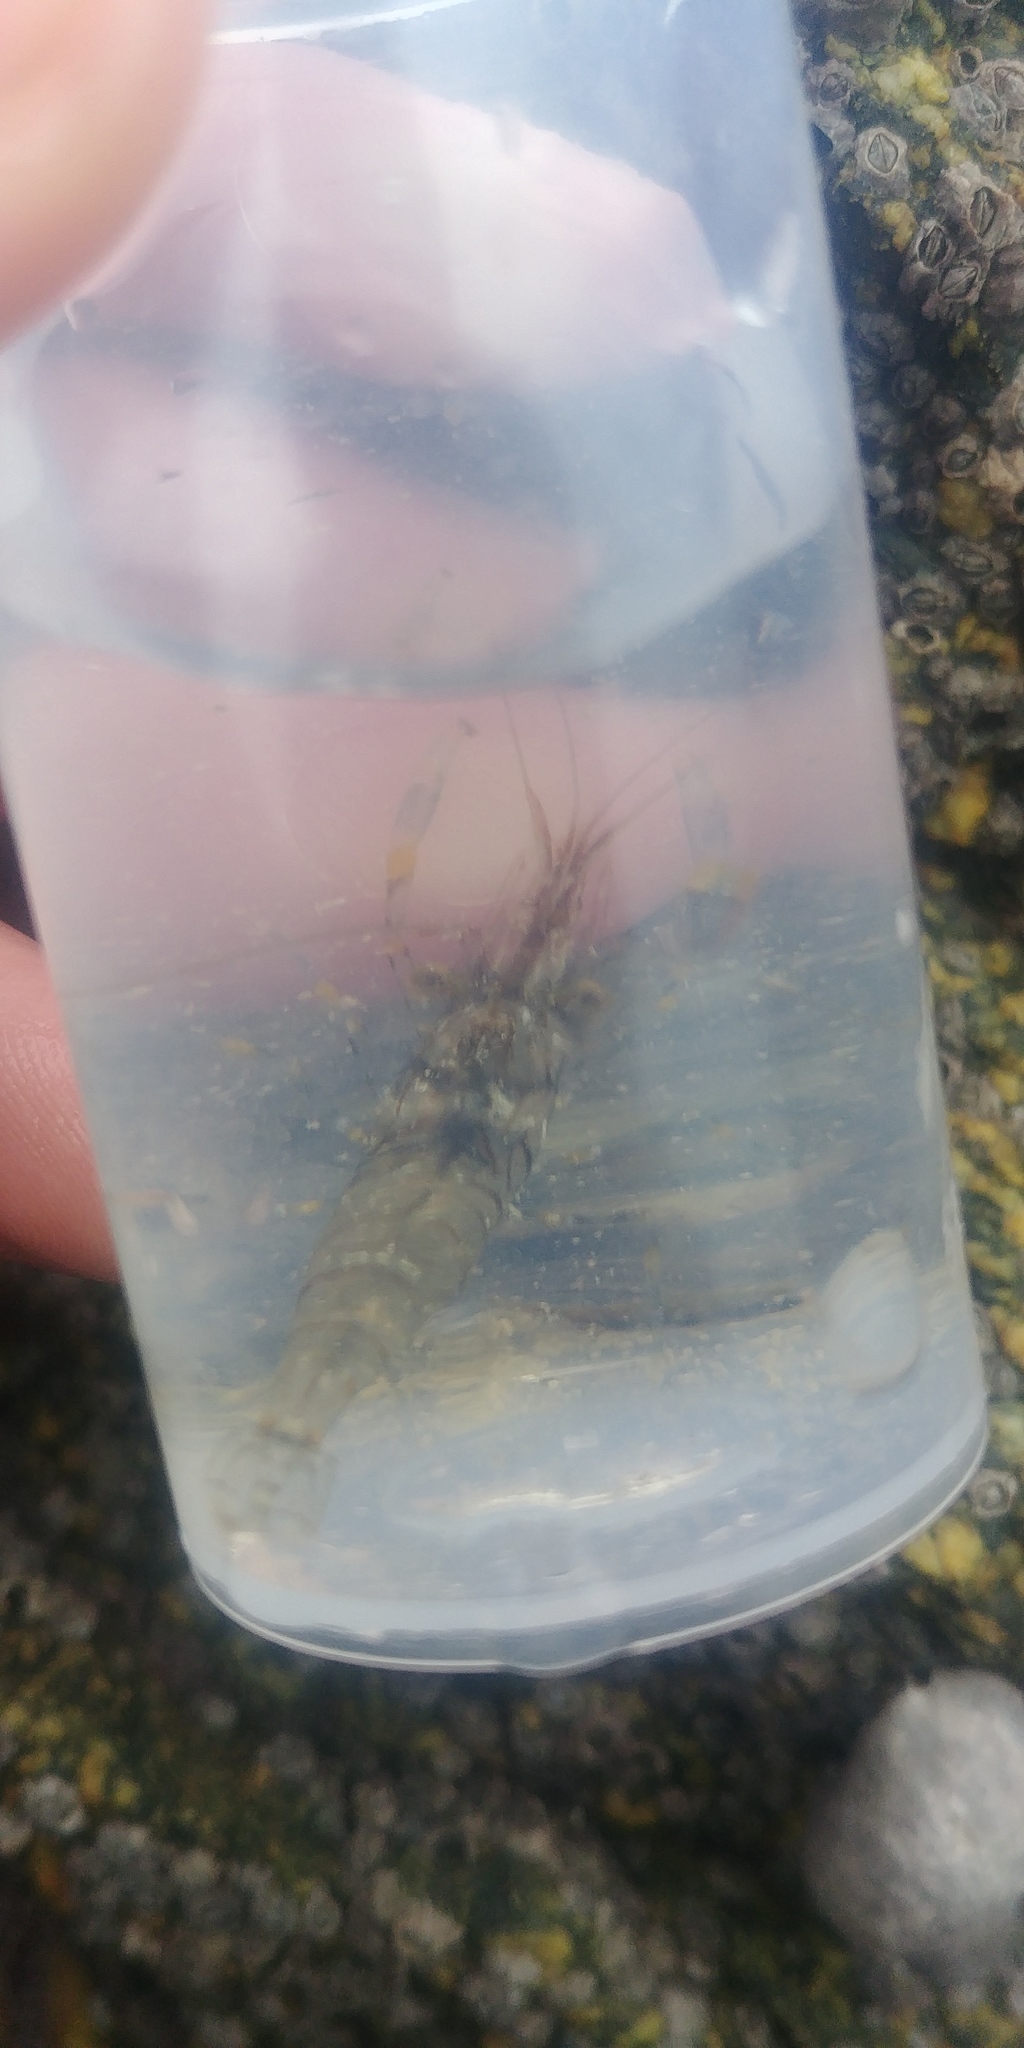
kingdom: Animalia
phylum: Arthropoda
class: Malacostraca
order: Decapoda
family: Palaemonidae
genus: Palaemon
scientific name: Palaemon elegans
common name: Grass prawm
